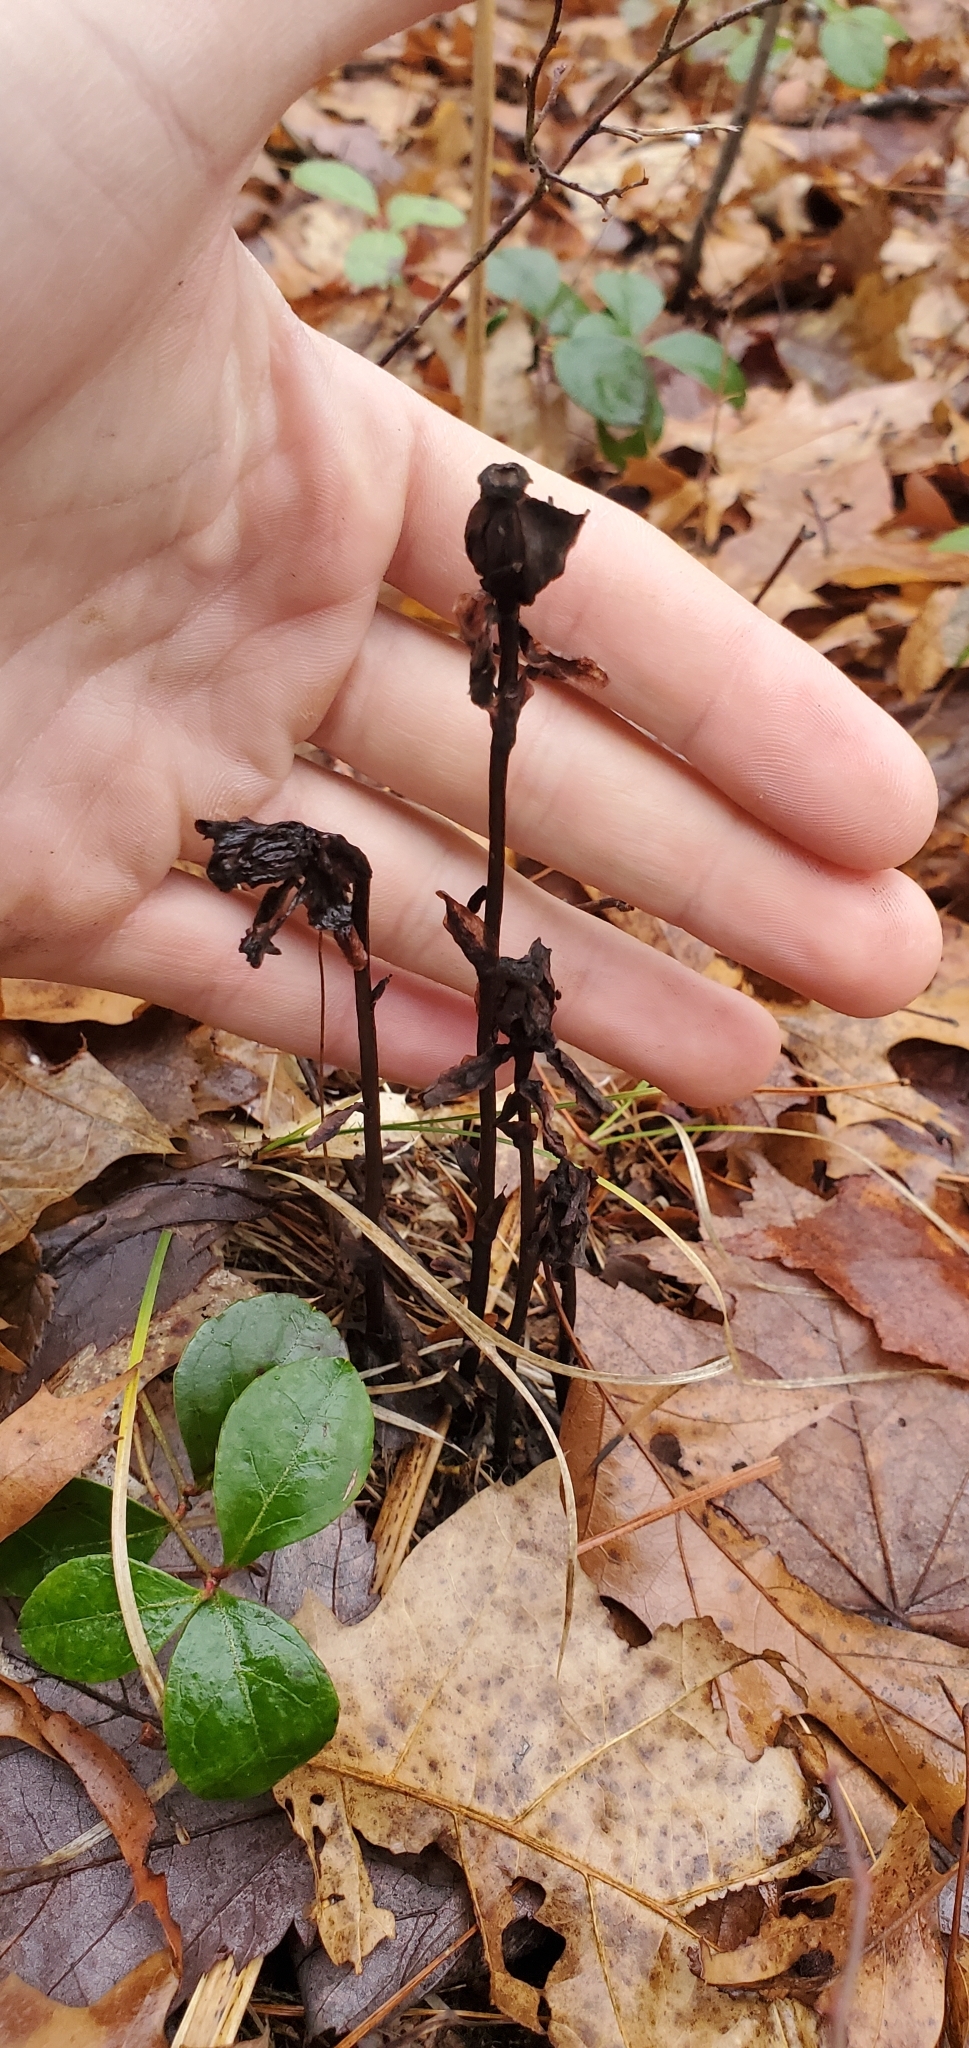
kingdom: Plantae
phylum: Tracheophyta
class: Magnoliopsida
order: Ericales
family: Ericaceae
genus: Monotropa
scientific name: Monotropa uniflora
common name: Convulsion root
